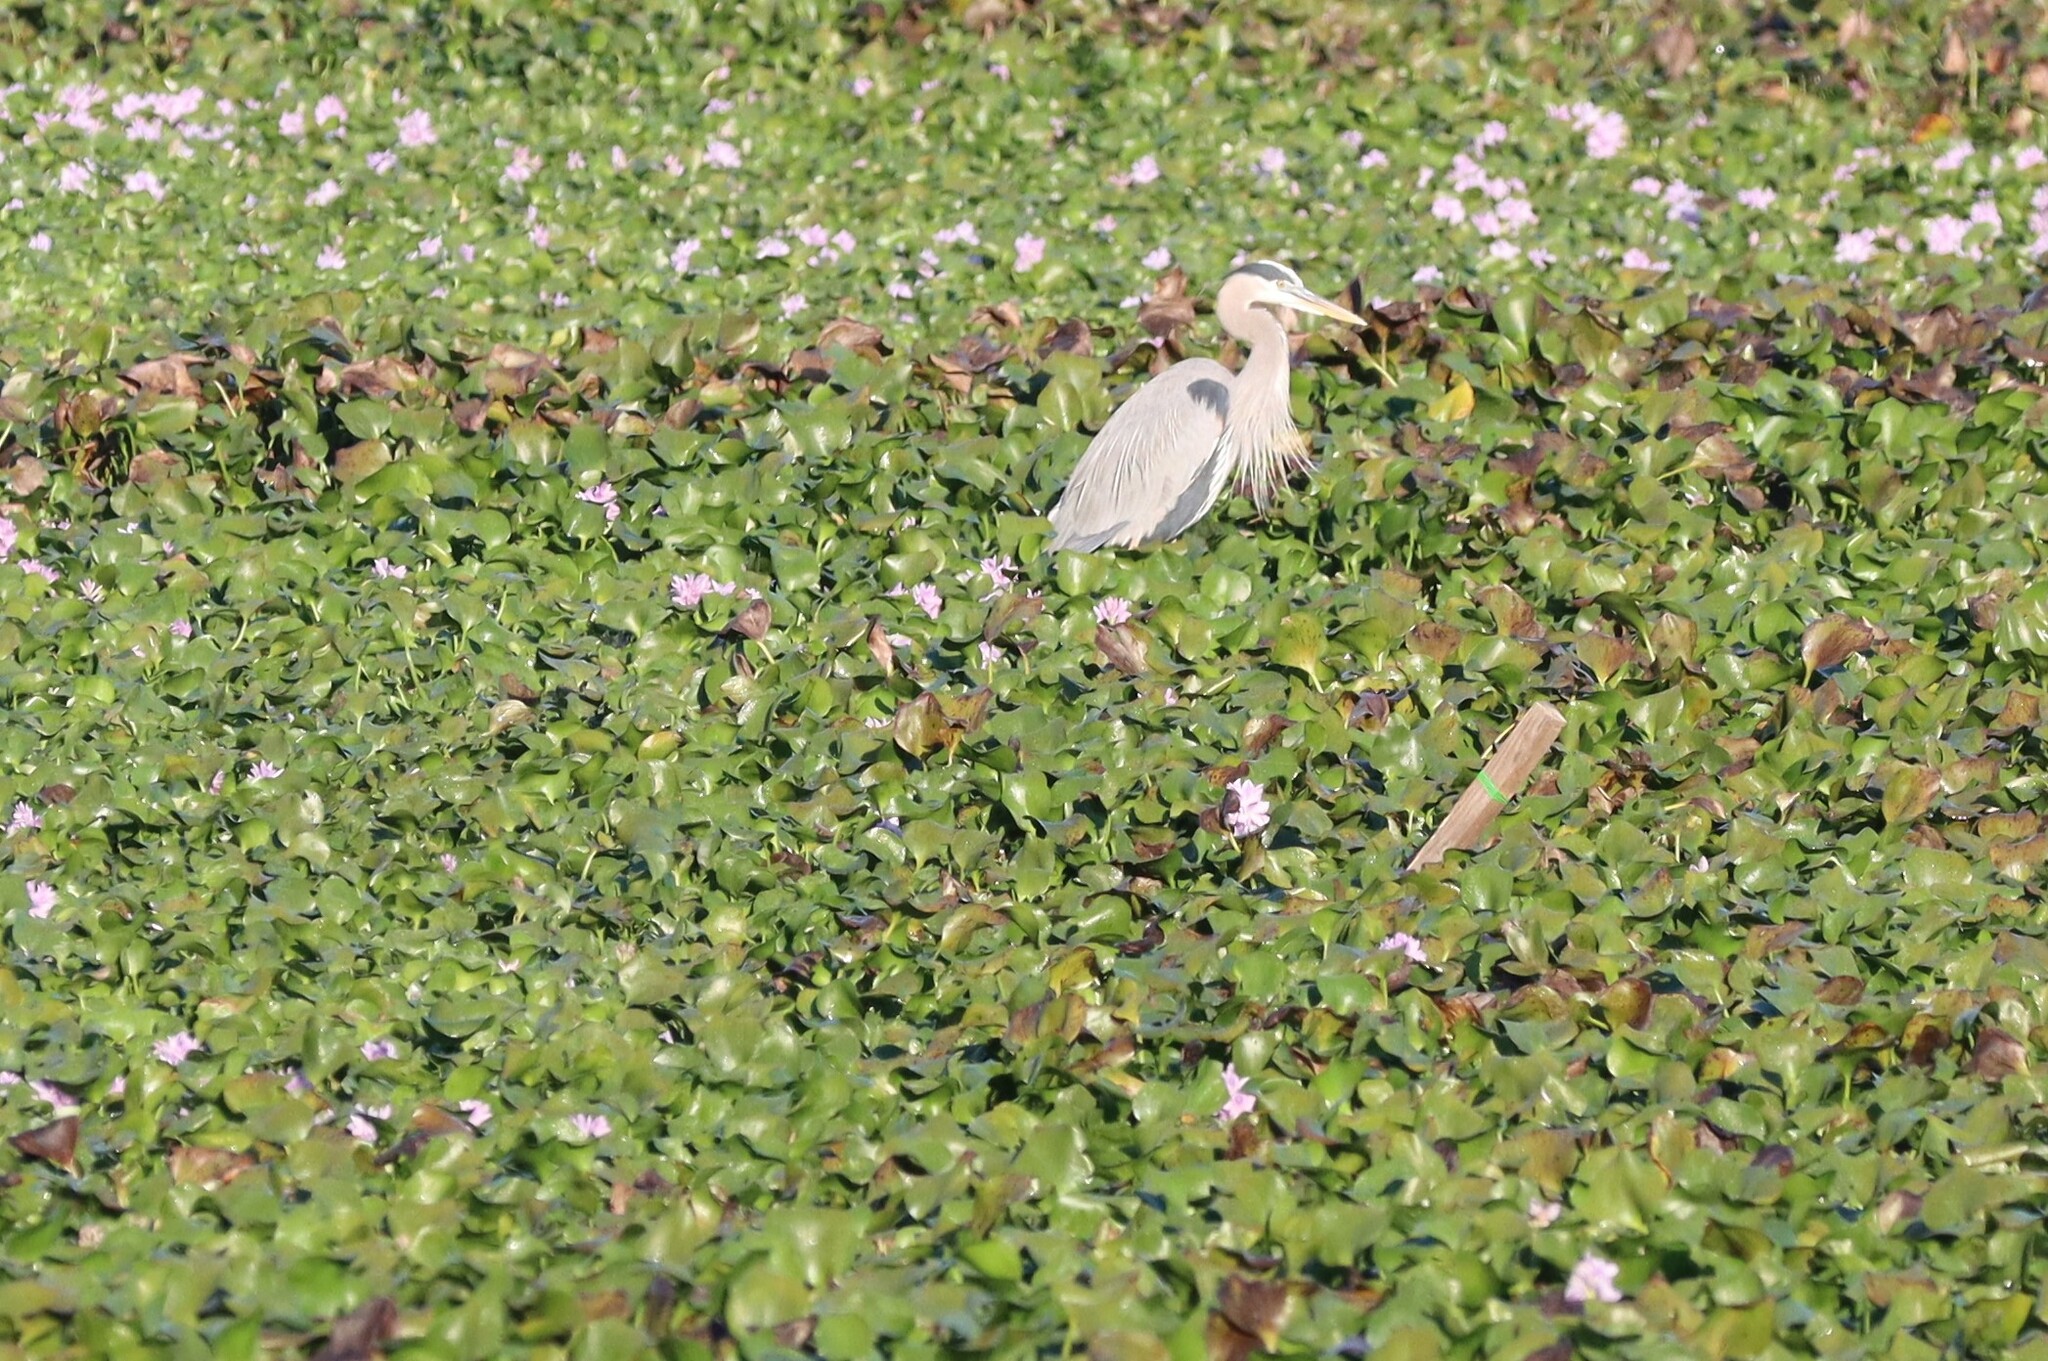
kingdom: Animalia
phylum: Chordata
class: Aves
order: Pelecaniformes
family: Ardeidae
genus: Ardea
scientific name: Ardea herodias
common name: Great blue heron
